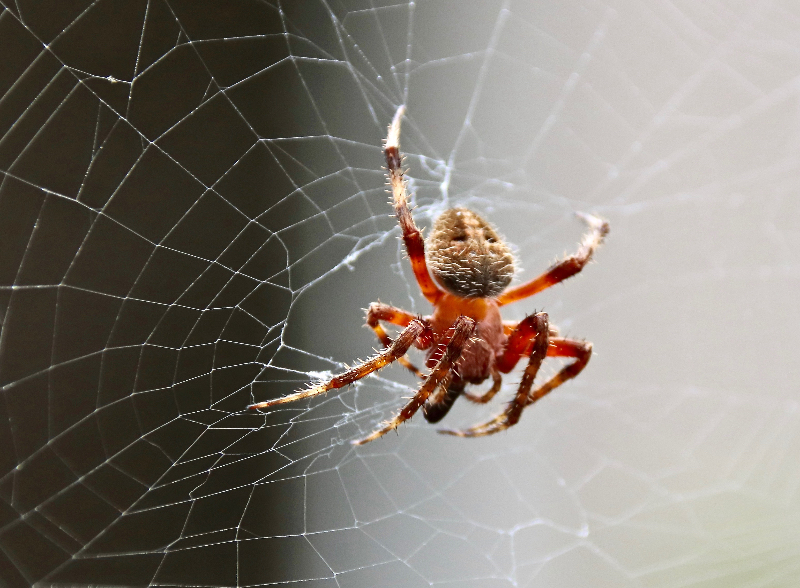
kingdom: Animalia
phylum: Arthropoda
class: Arachnida
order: Araneae
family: Araneidae
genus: Neoscona
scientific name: Neoscona crucifera
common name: Spotted orbweaver
